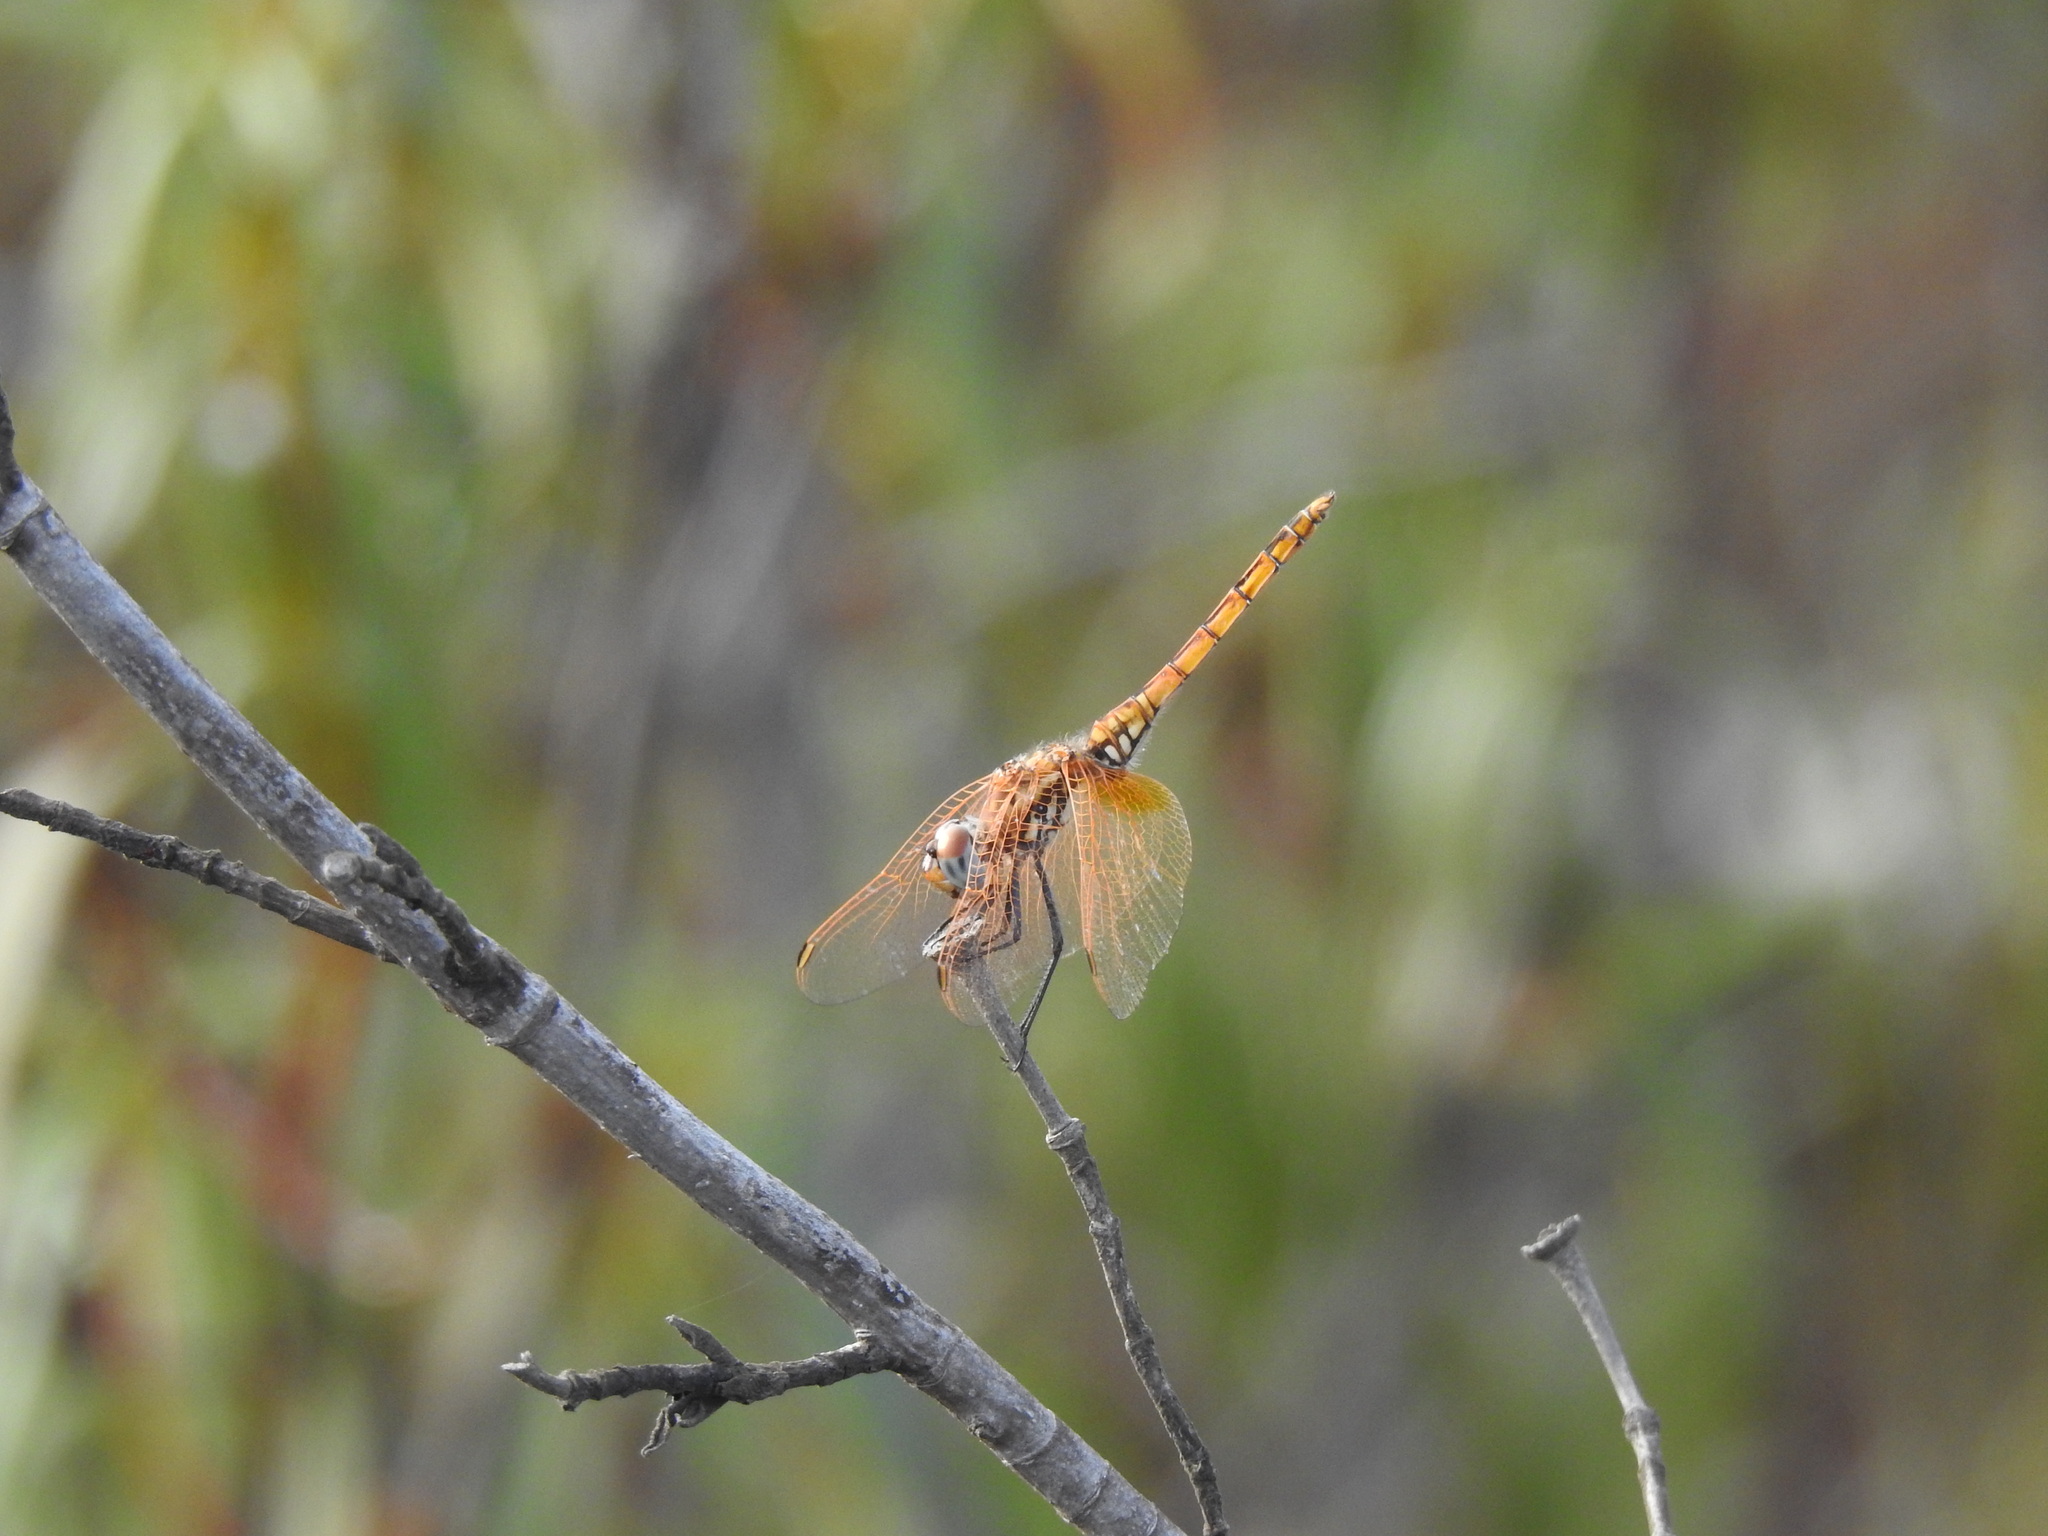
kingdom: Animalia
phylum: Arthropoda
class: Insecta
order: Odonata
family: Libellulidae
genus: Trithemis
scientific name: Trithemis annulata
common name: Violet dropwing
